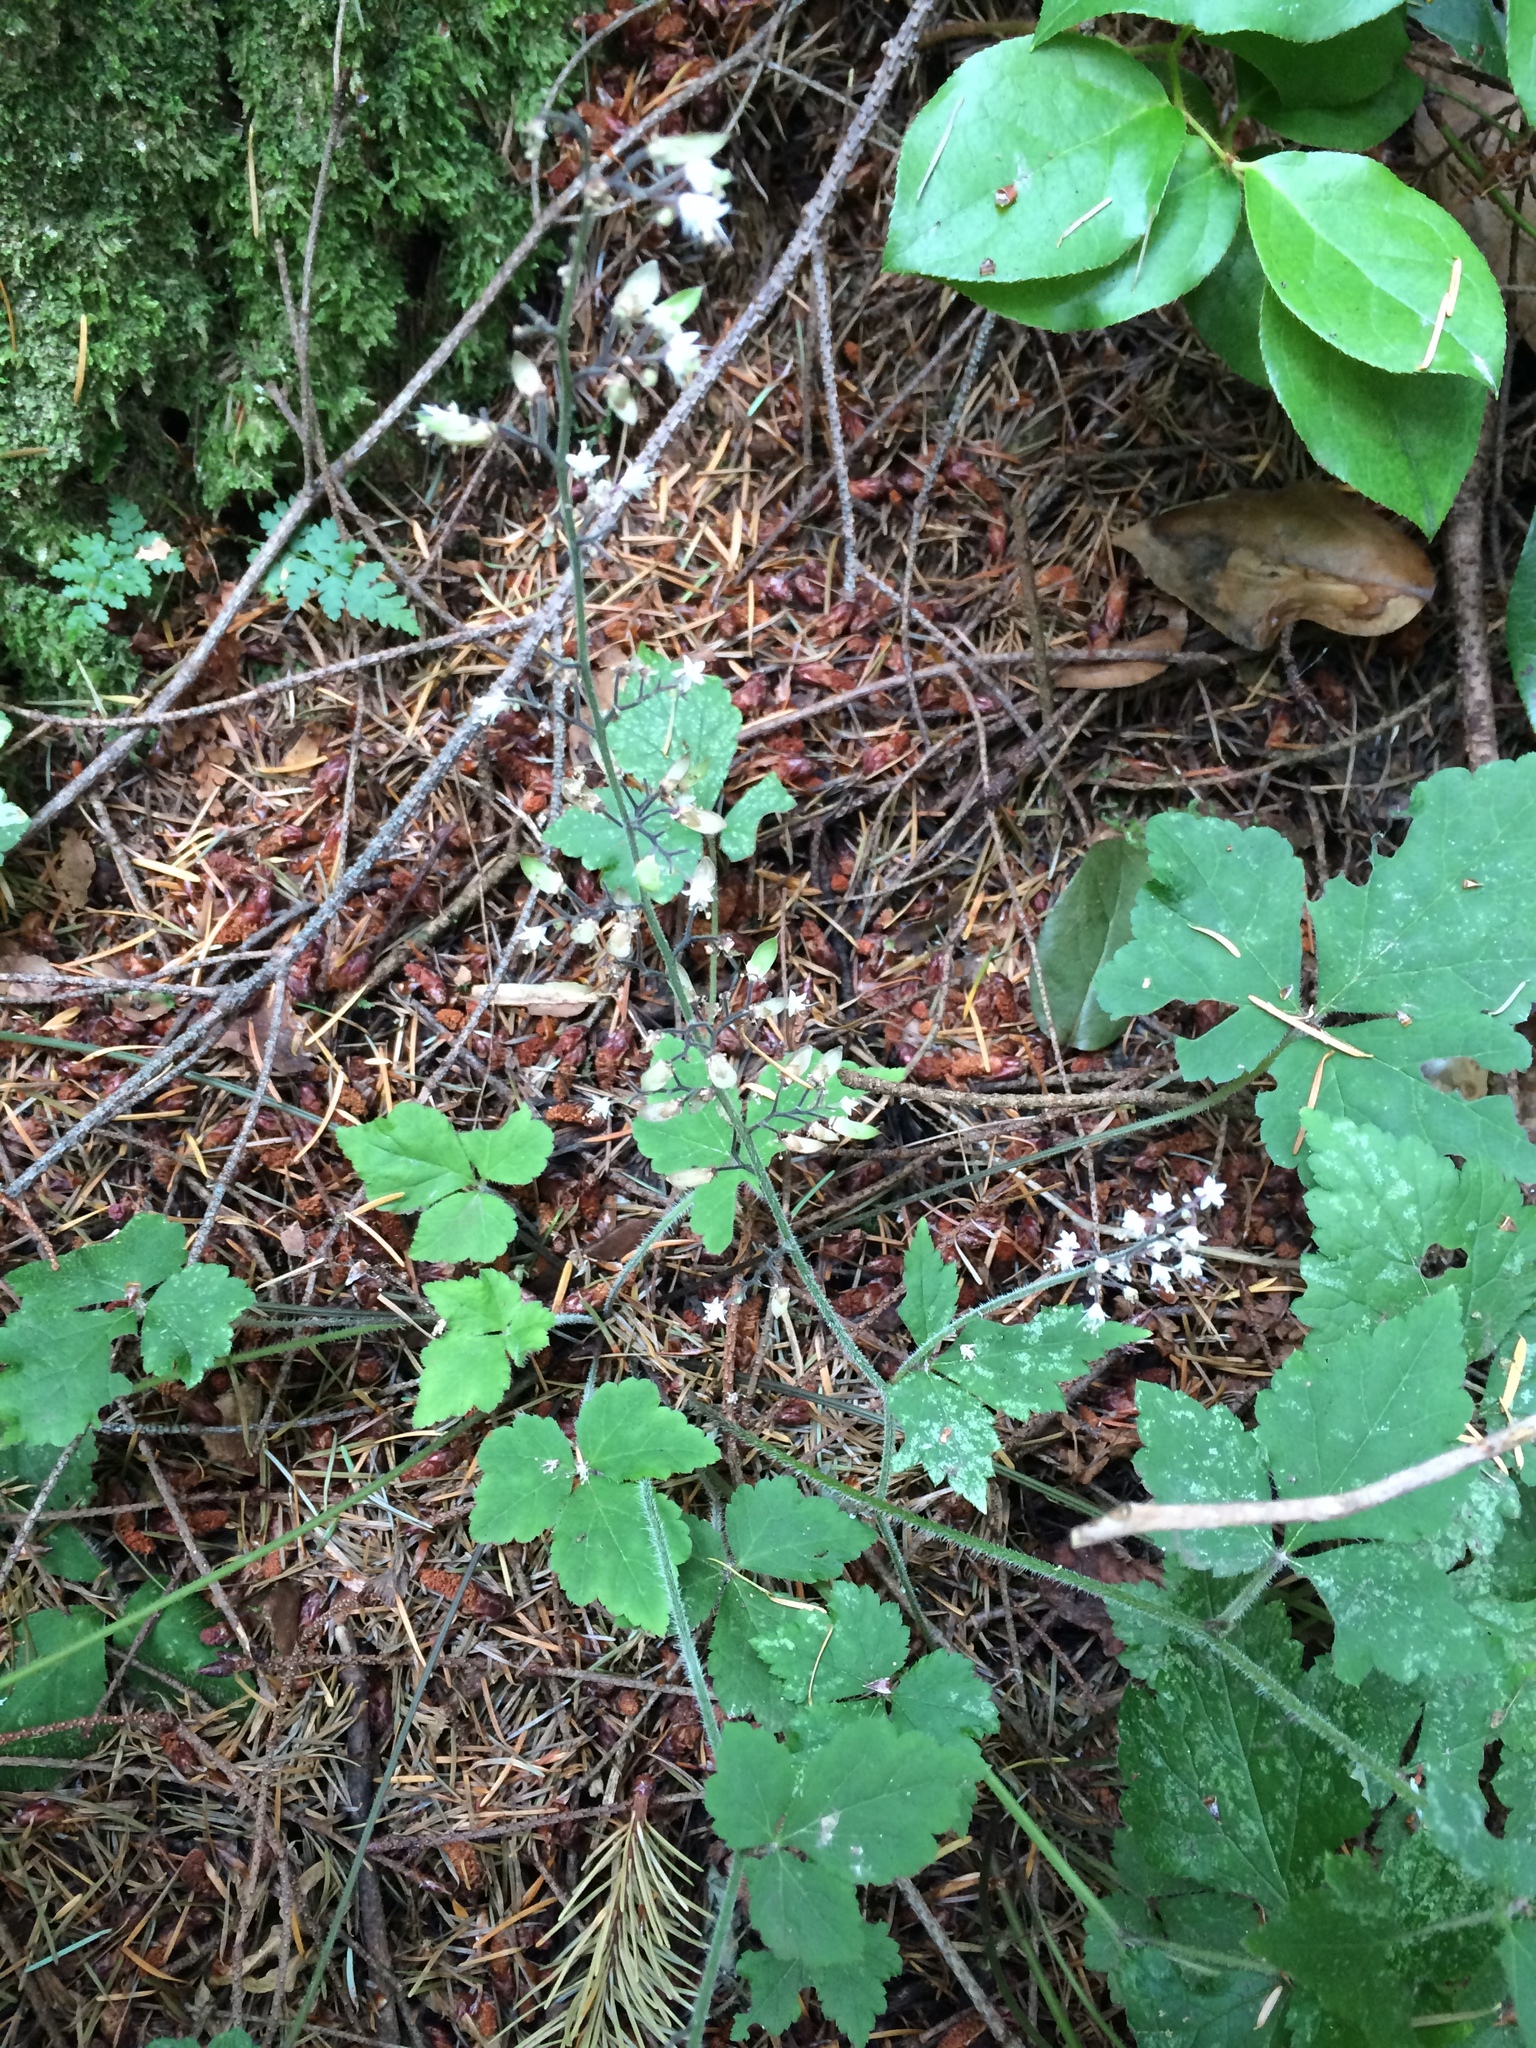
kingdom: Plantae
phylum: Tracheophyta
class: Magnoliopsida
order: Saxifragales
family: Saxifragaceae
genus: Tiarella
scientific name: Tiarella trifoliata
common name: Sugar-scoop
